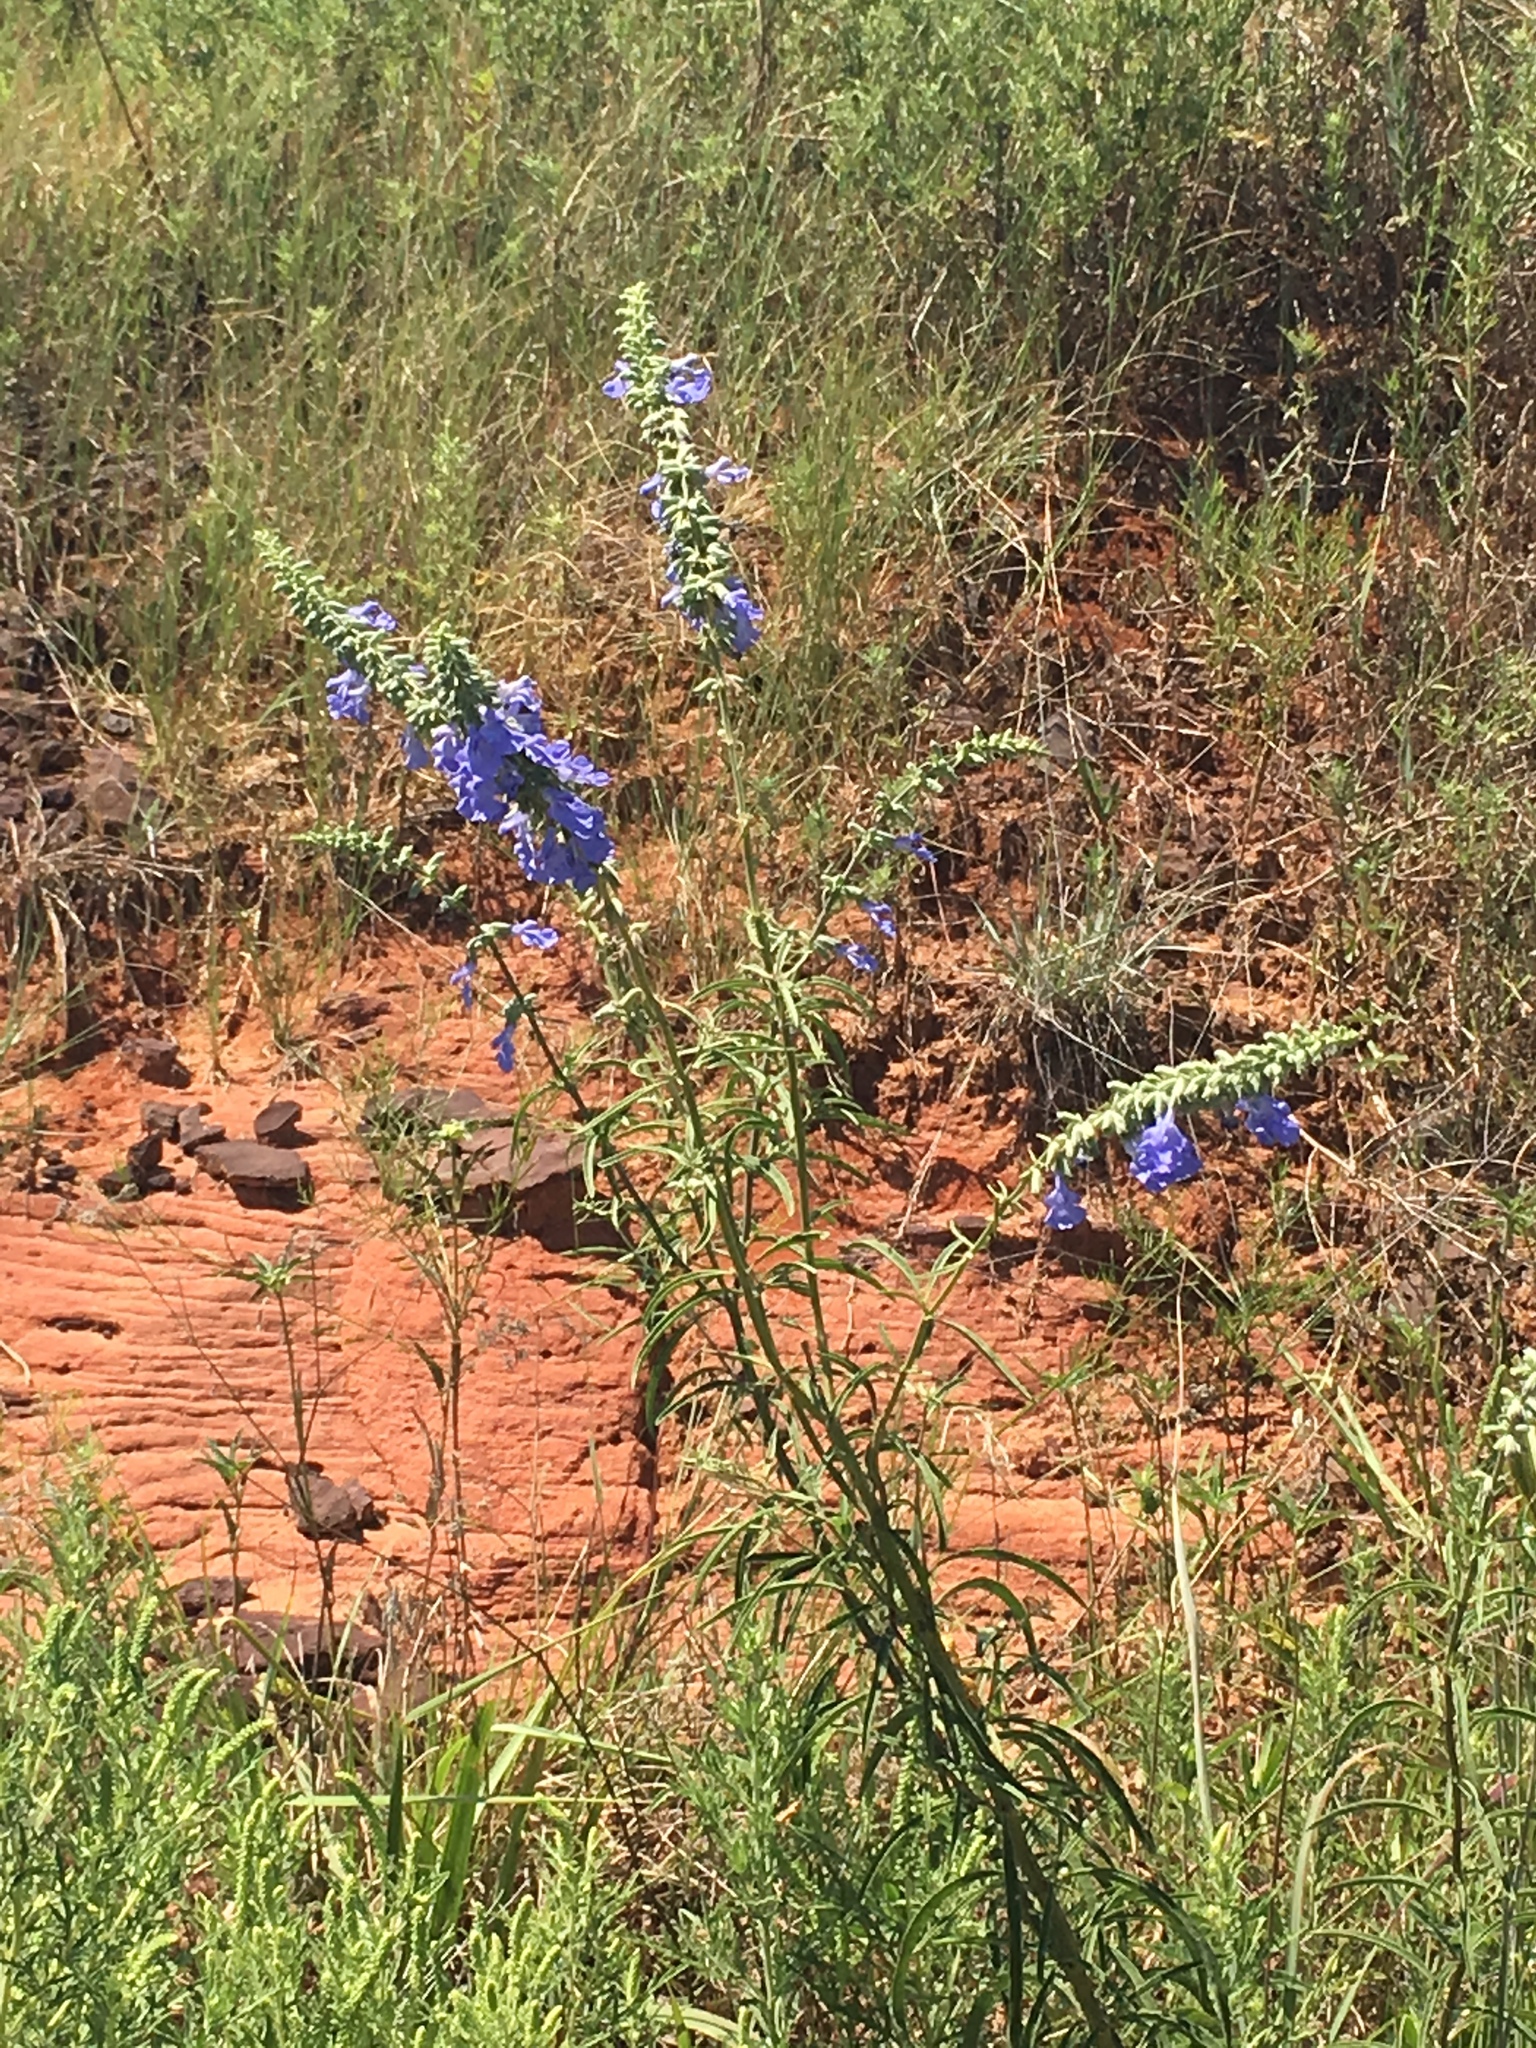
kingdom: Plantae
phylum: Tracheophyta
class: Magnoliopsida
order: Lamiales
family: Lamiaceae
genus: Salvia
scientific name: Salvia azurea
